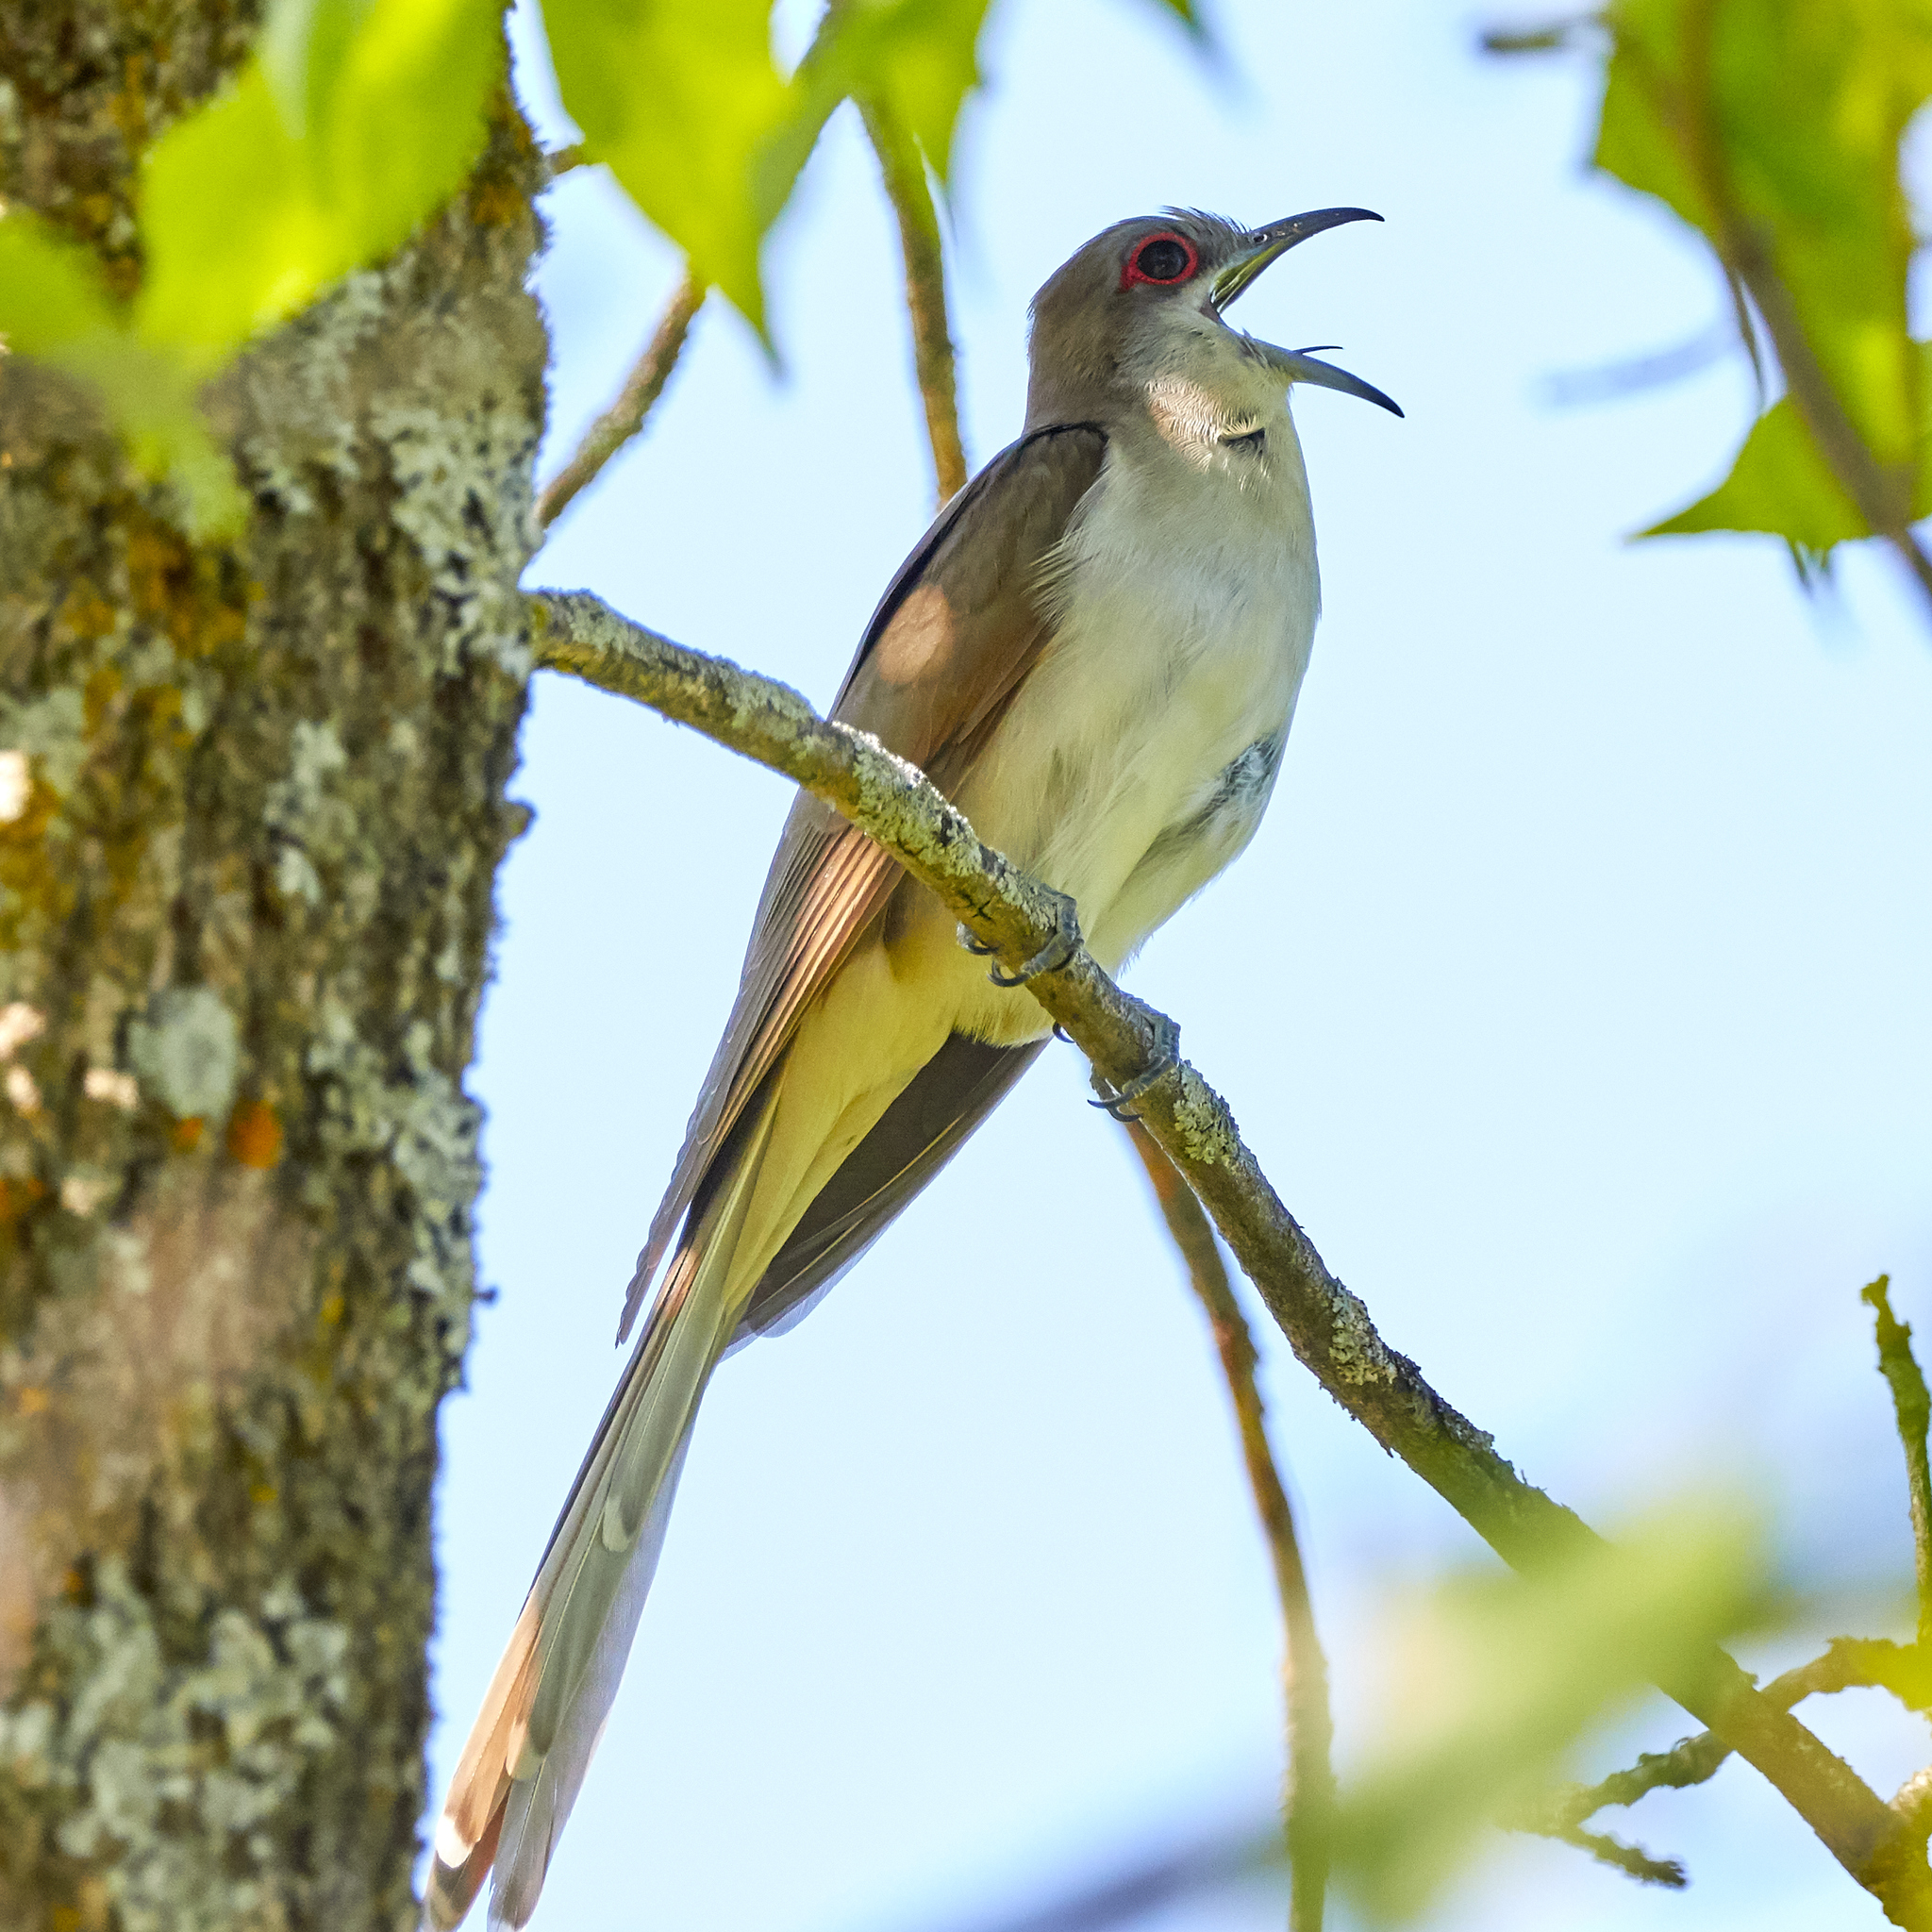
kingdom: Animalia
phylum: Chordata
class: Aves
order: Cuculiformes
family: Cuculidae
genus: Coccyzus
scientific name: Coccyzus erythropthalmus
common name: Black-billed cuckoo
